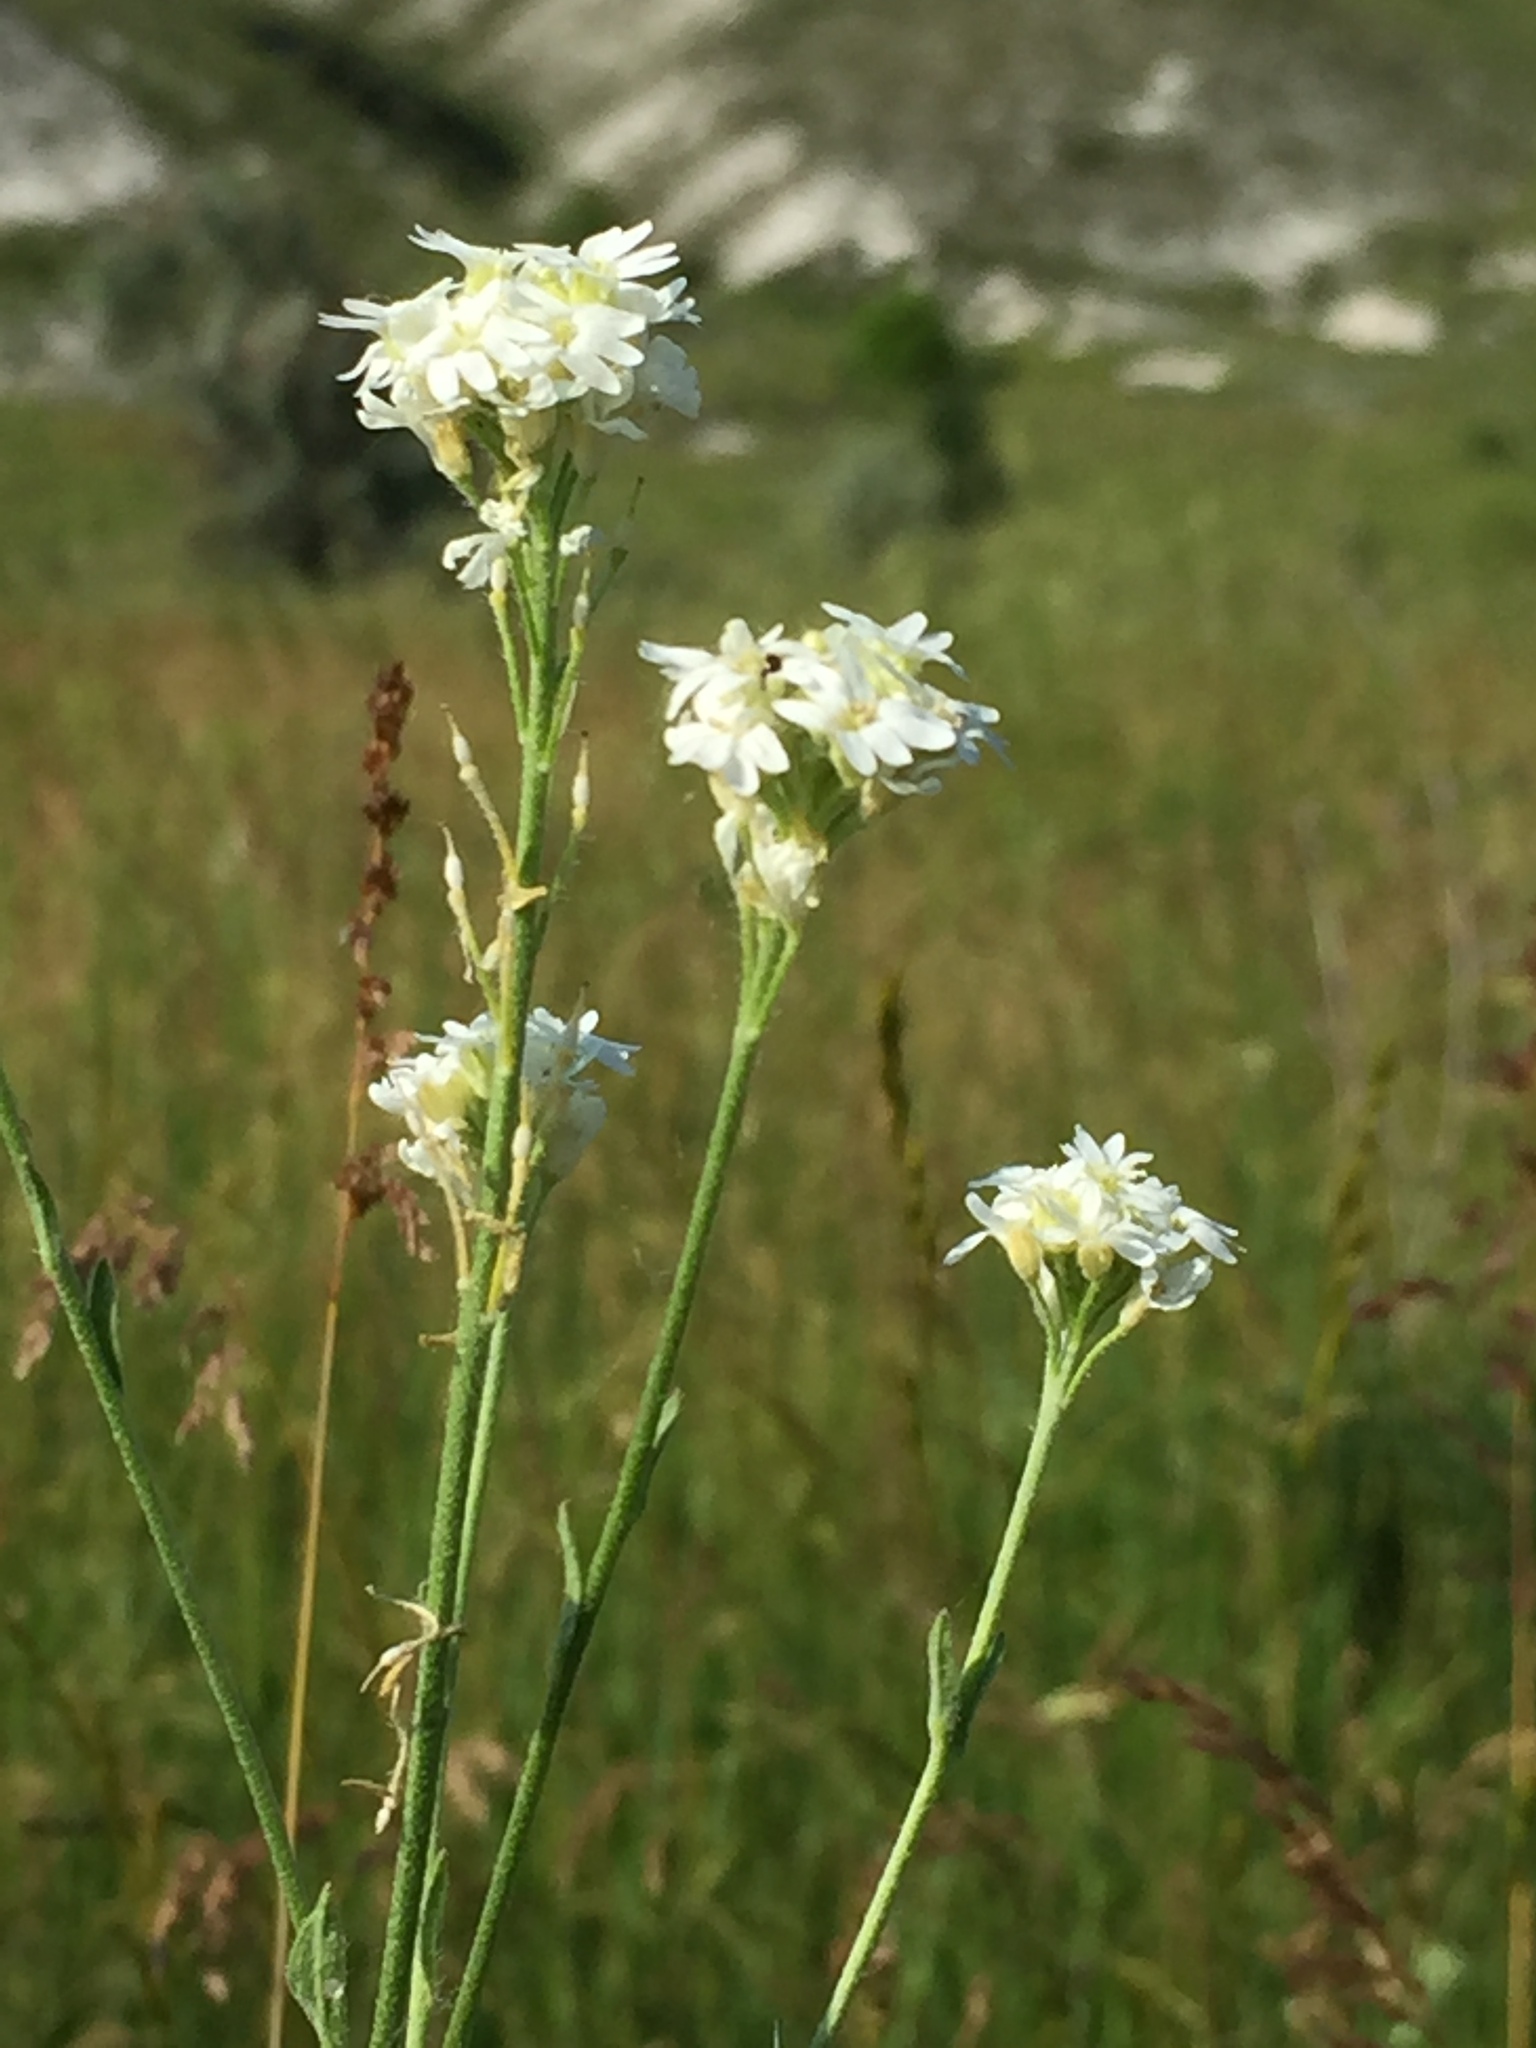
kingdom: Plantae
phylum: Tracheophyta
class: Magnoliopsida
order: Brassicales
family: Brassicaceae
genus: Berteroa
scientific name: Berteroa incana
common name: Hoary alison
